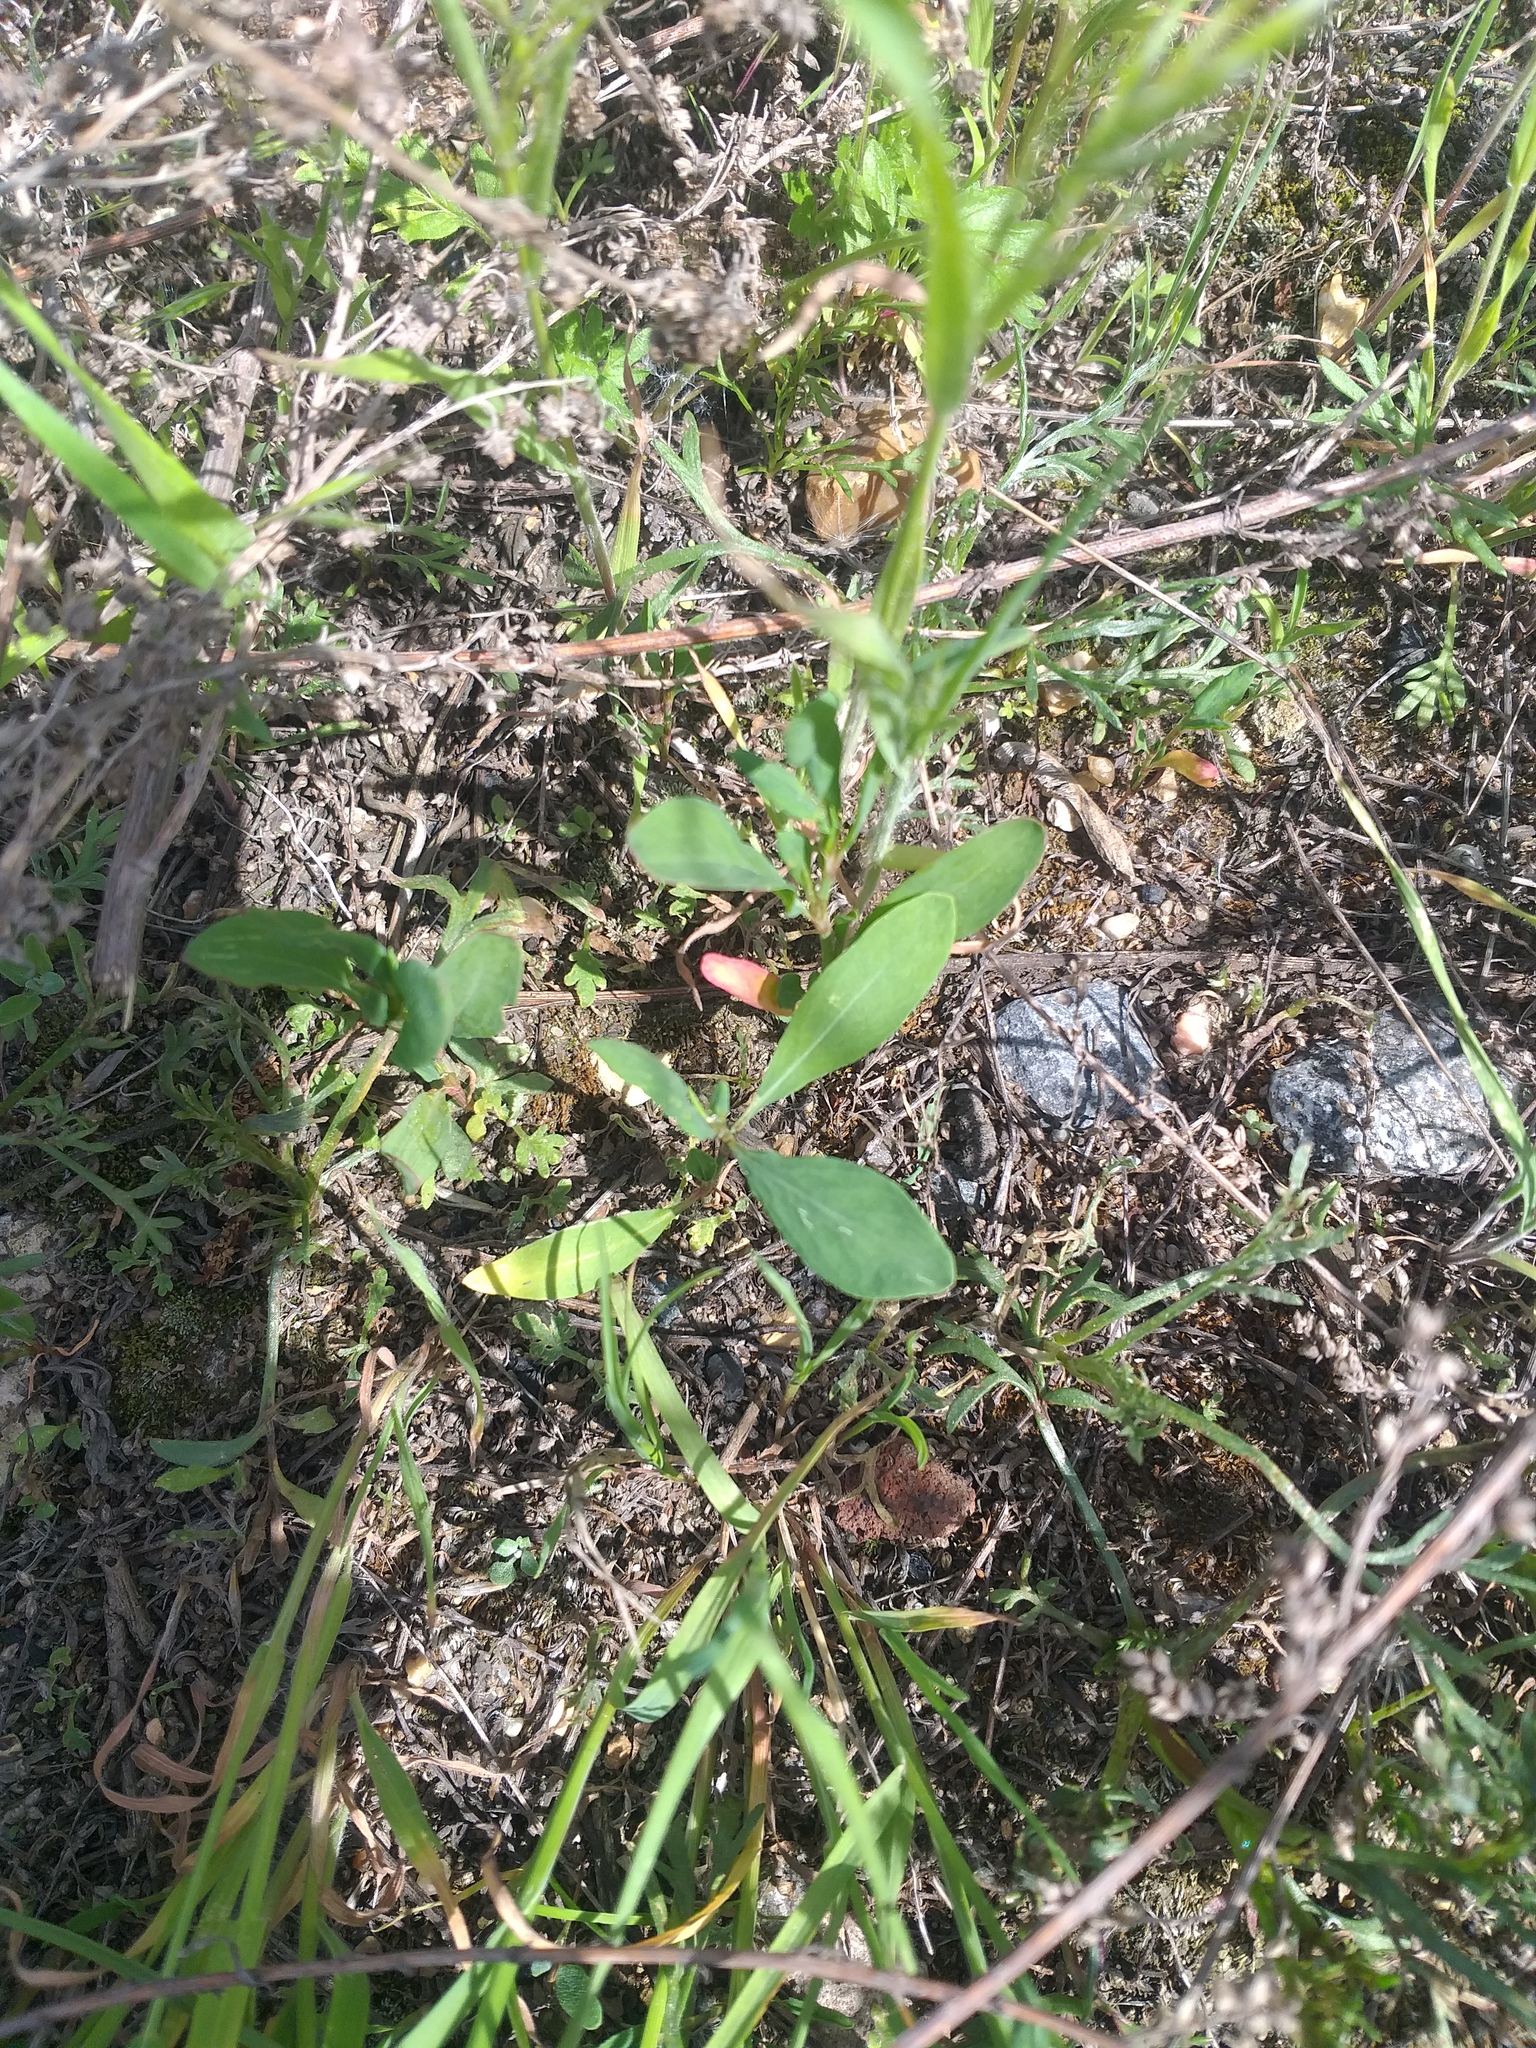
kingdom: Plantae
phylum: Tracheophyta
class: Magnoliopsida
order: Caryophyllales
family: Polygonaceae
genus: Polygonum
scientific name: Polygonum
